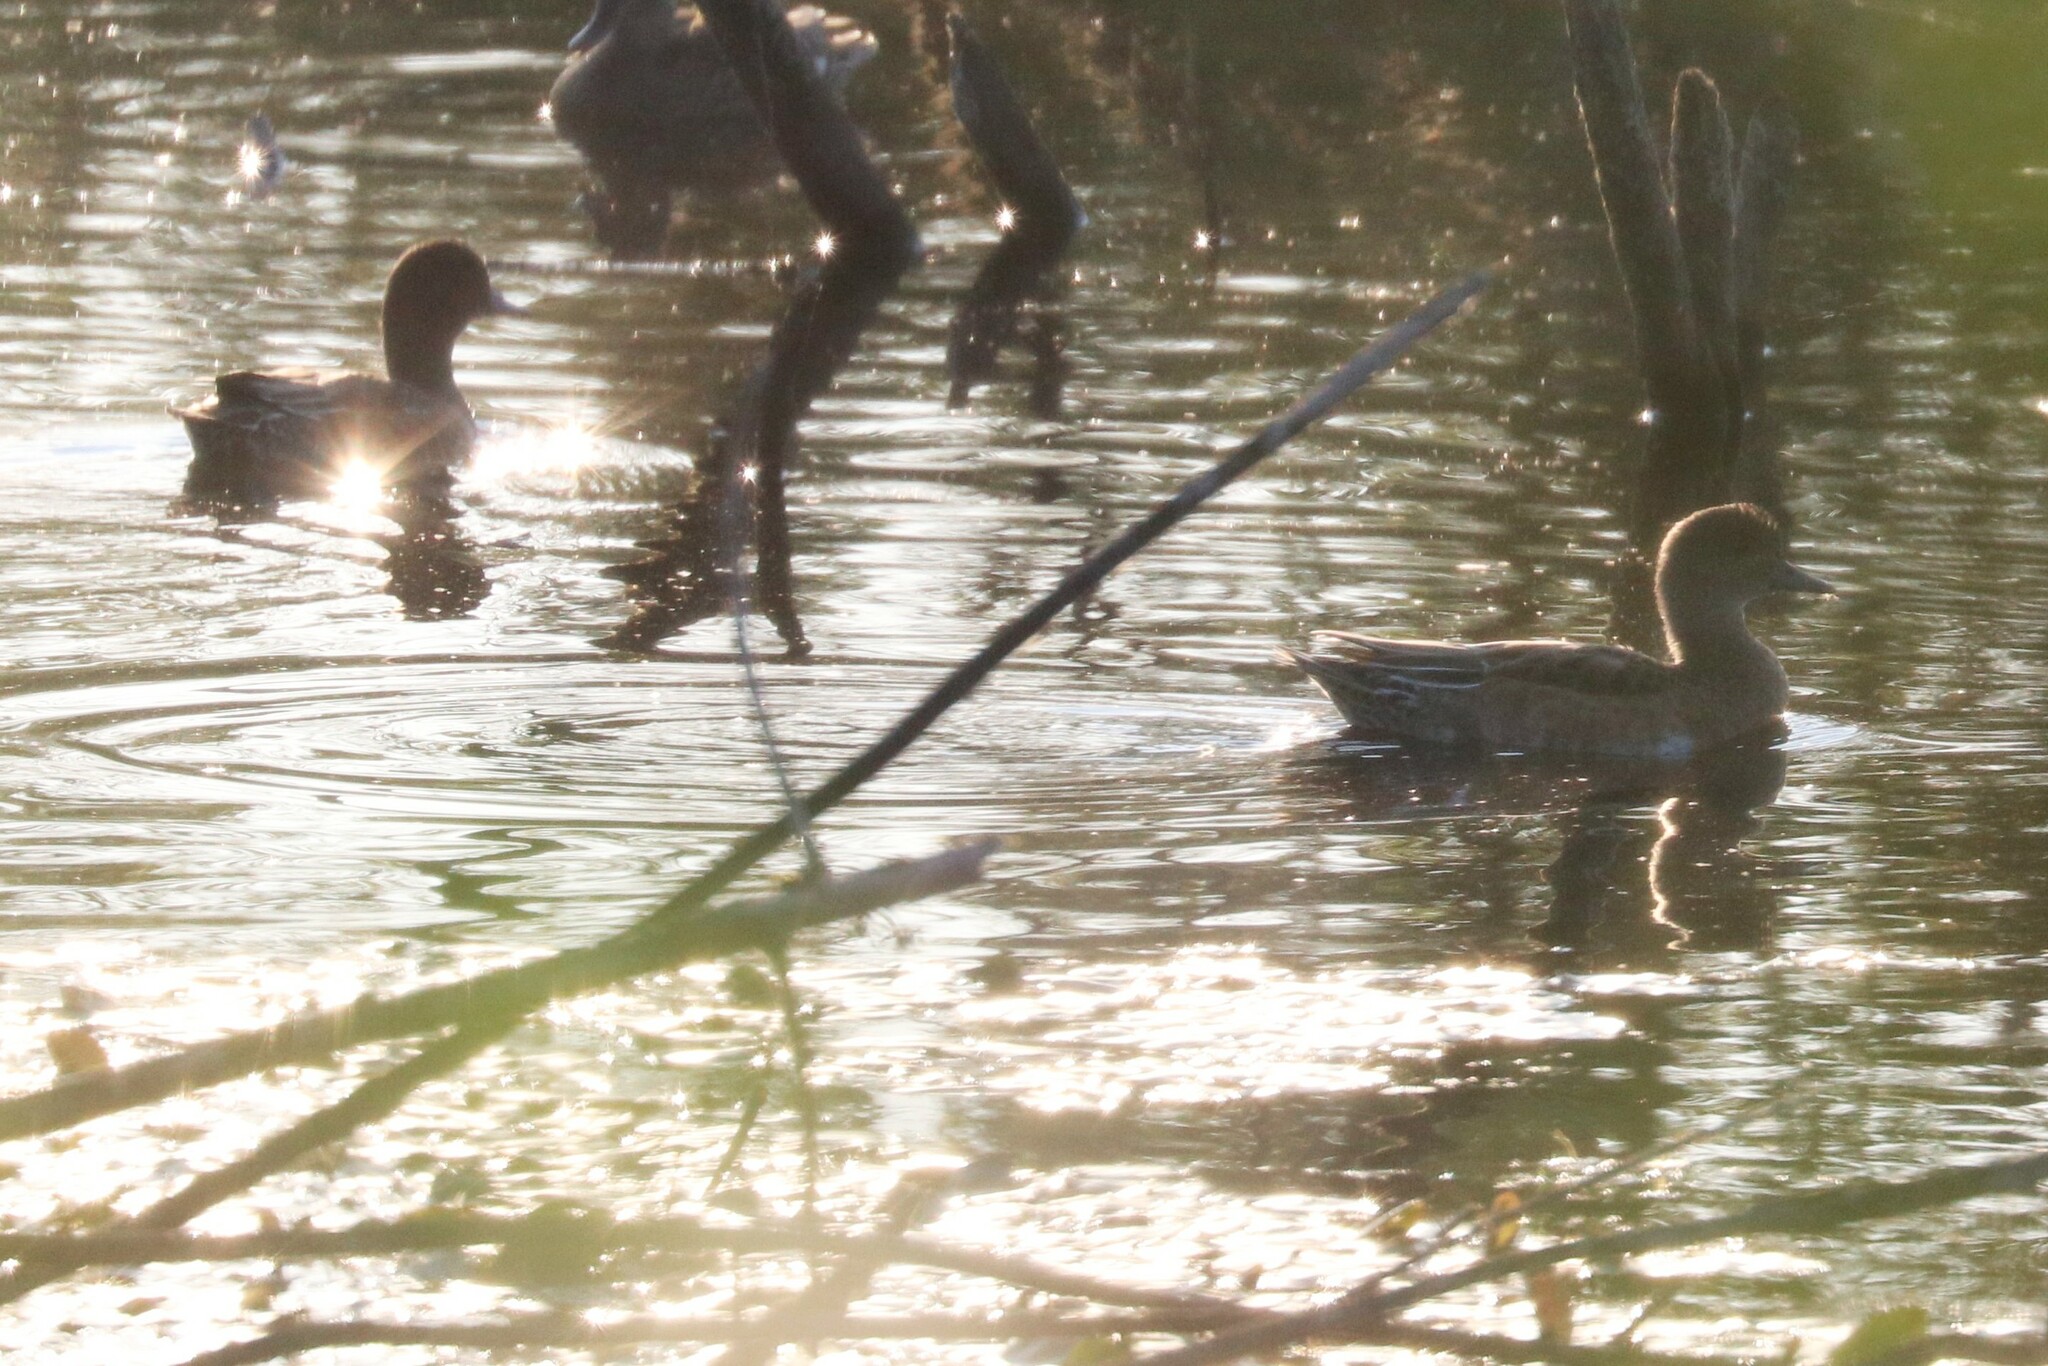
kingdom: Animalia
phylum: Chordata
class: Aves
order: Anseriformes
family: Anatidae
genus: Mareca
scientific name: Mareca penelope
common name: Eurasian wigeon
